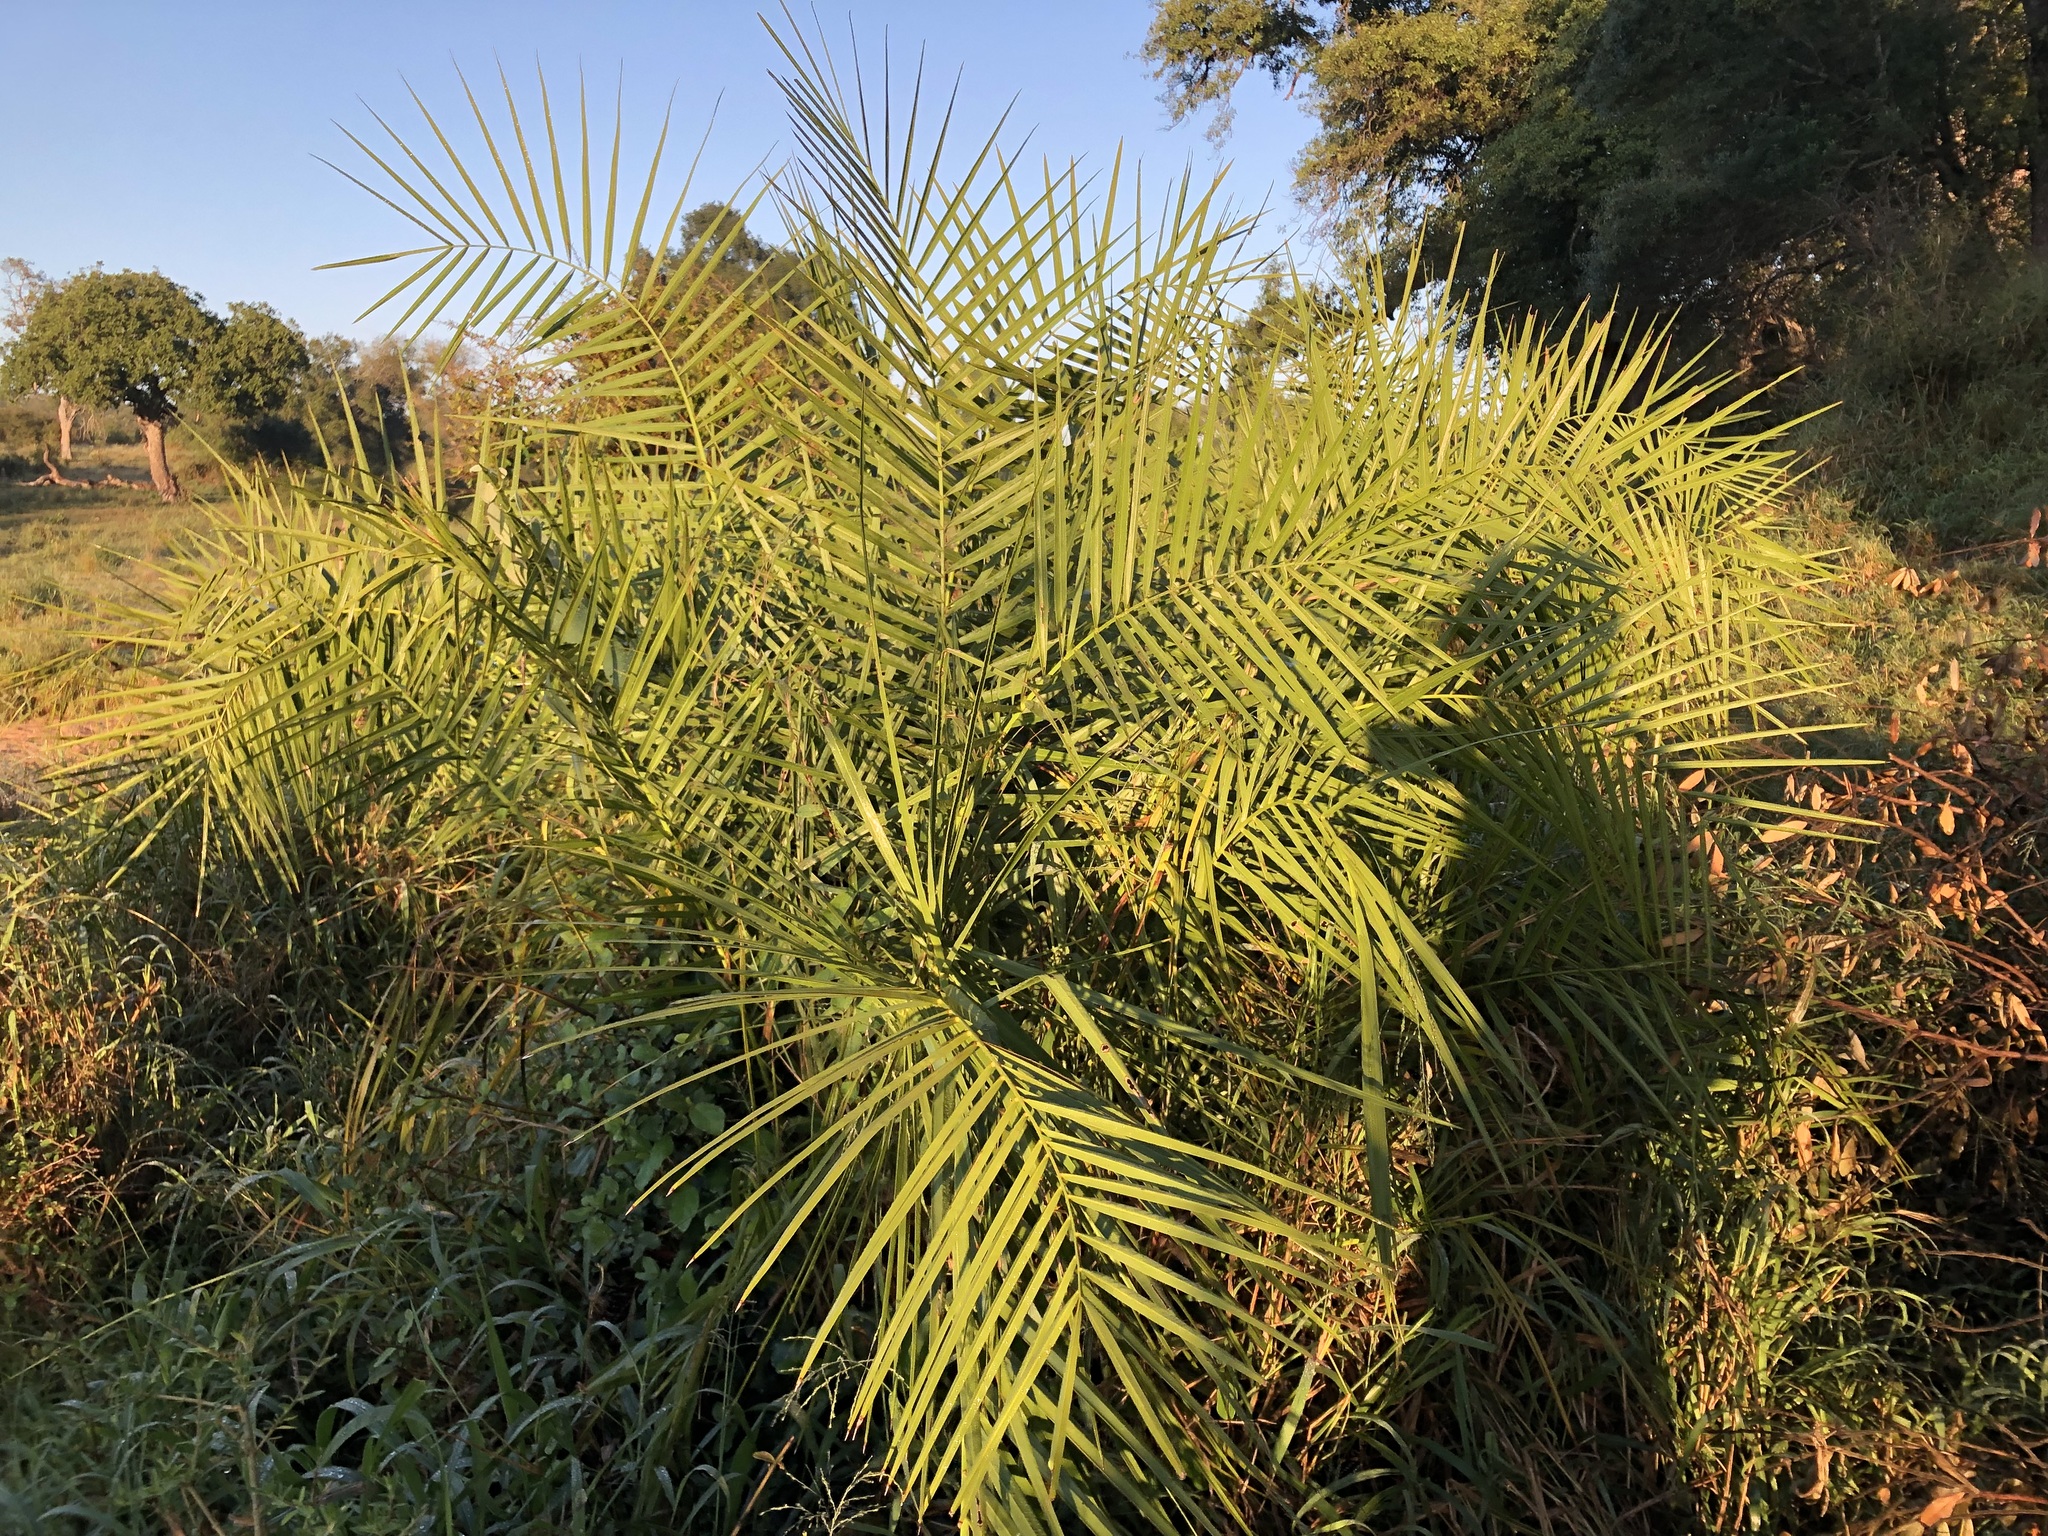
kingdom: Plantae
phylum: Tracheophyta
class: Liliopsida
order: Arecales
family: Arecaceae
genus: Phoenix
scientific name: Phoenix reclinata
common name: Senegal date palm
